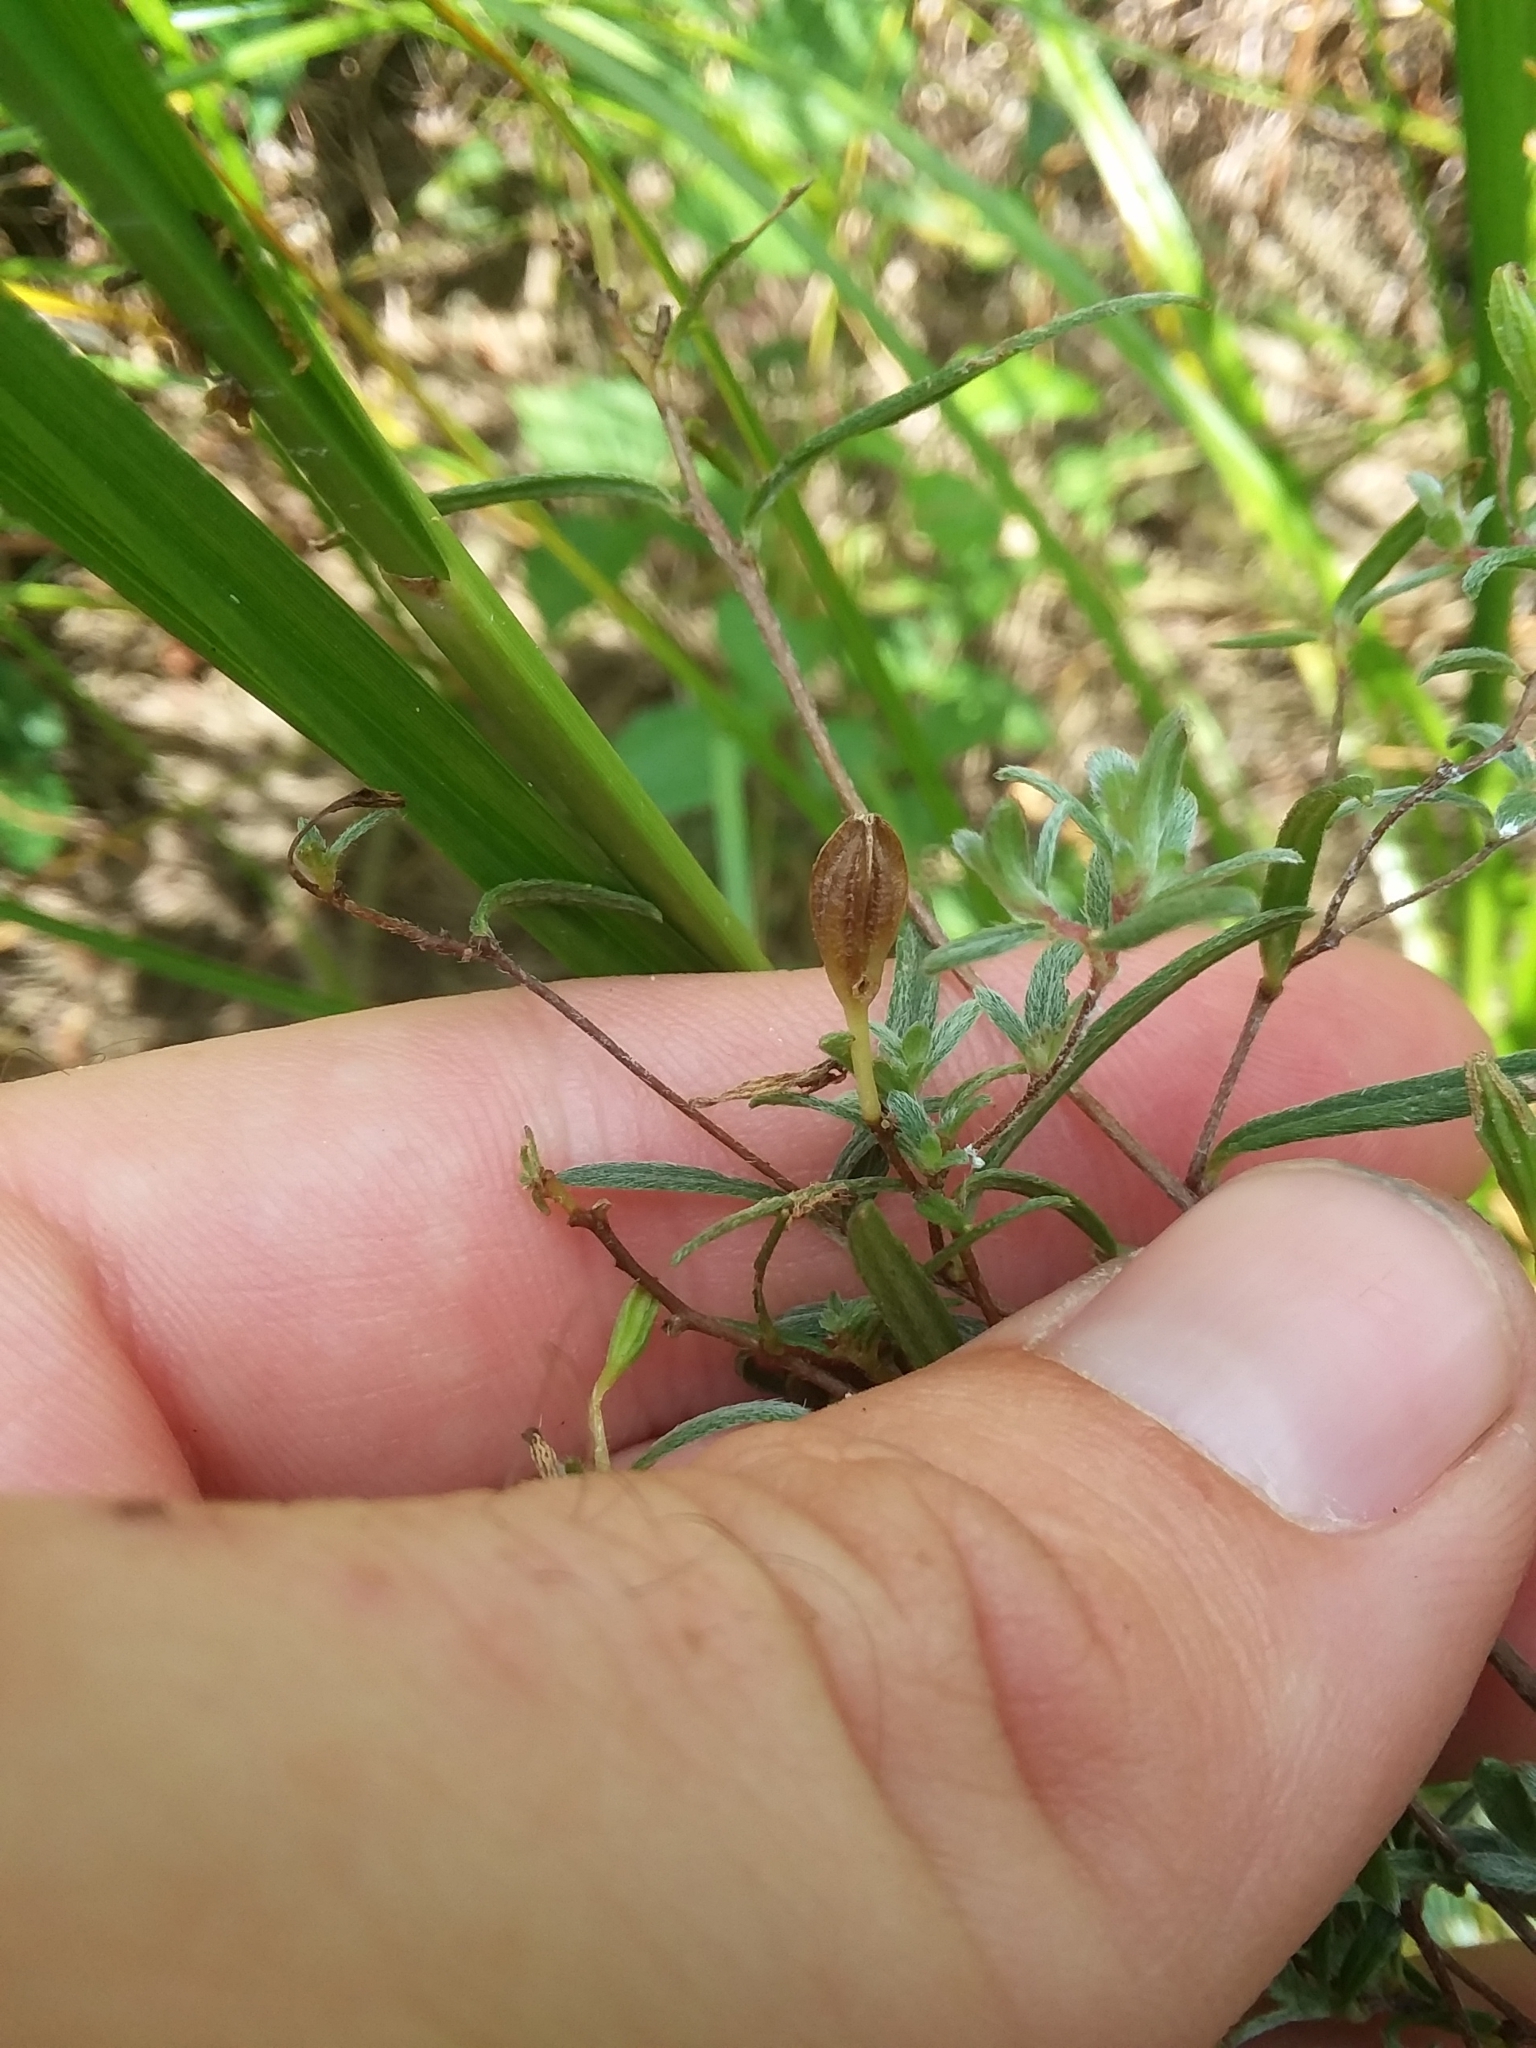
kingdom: Plantae
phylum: Tracheophyta
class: Magnoliopsida
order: Myrtales
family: Onagraceae
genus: Oenothera
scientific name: Oenothera fruticosa
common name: Southern sundrops
